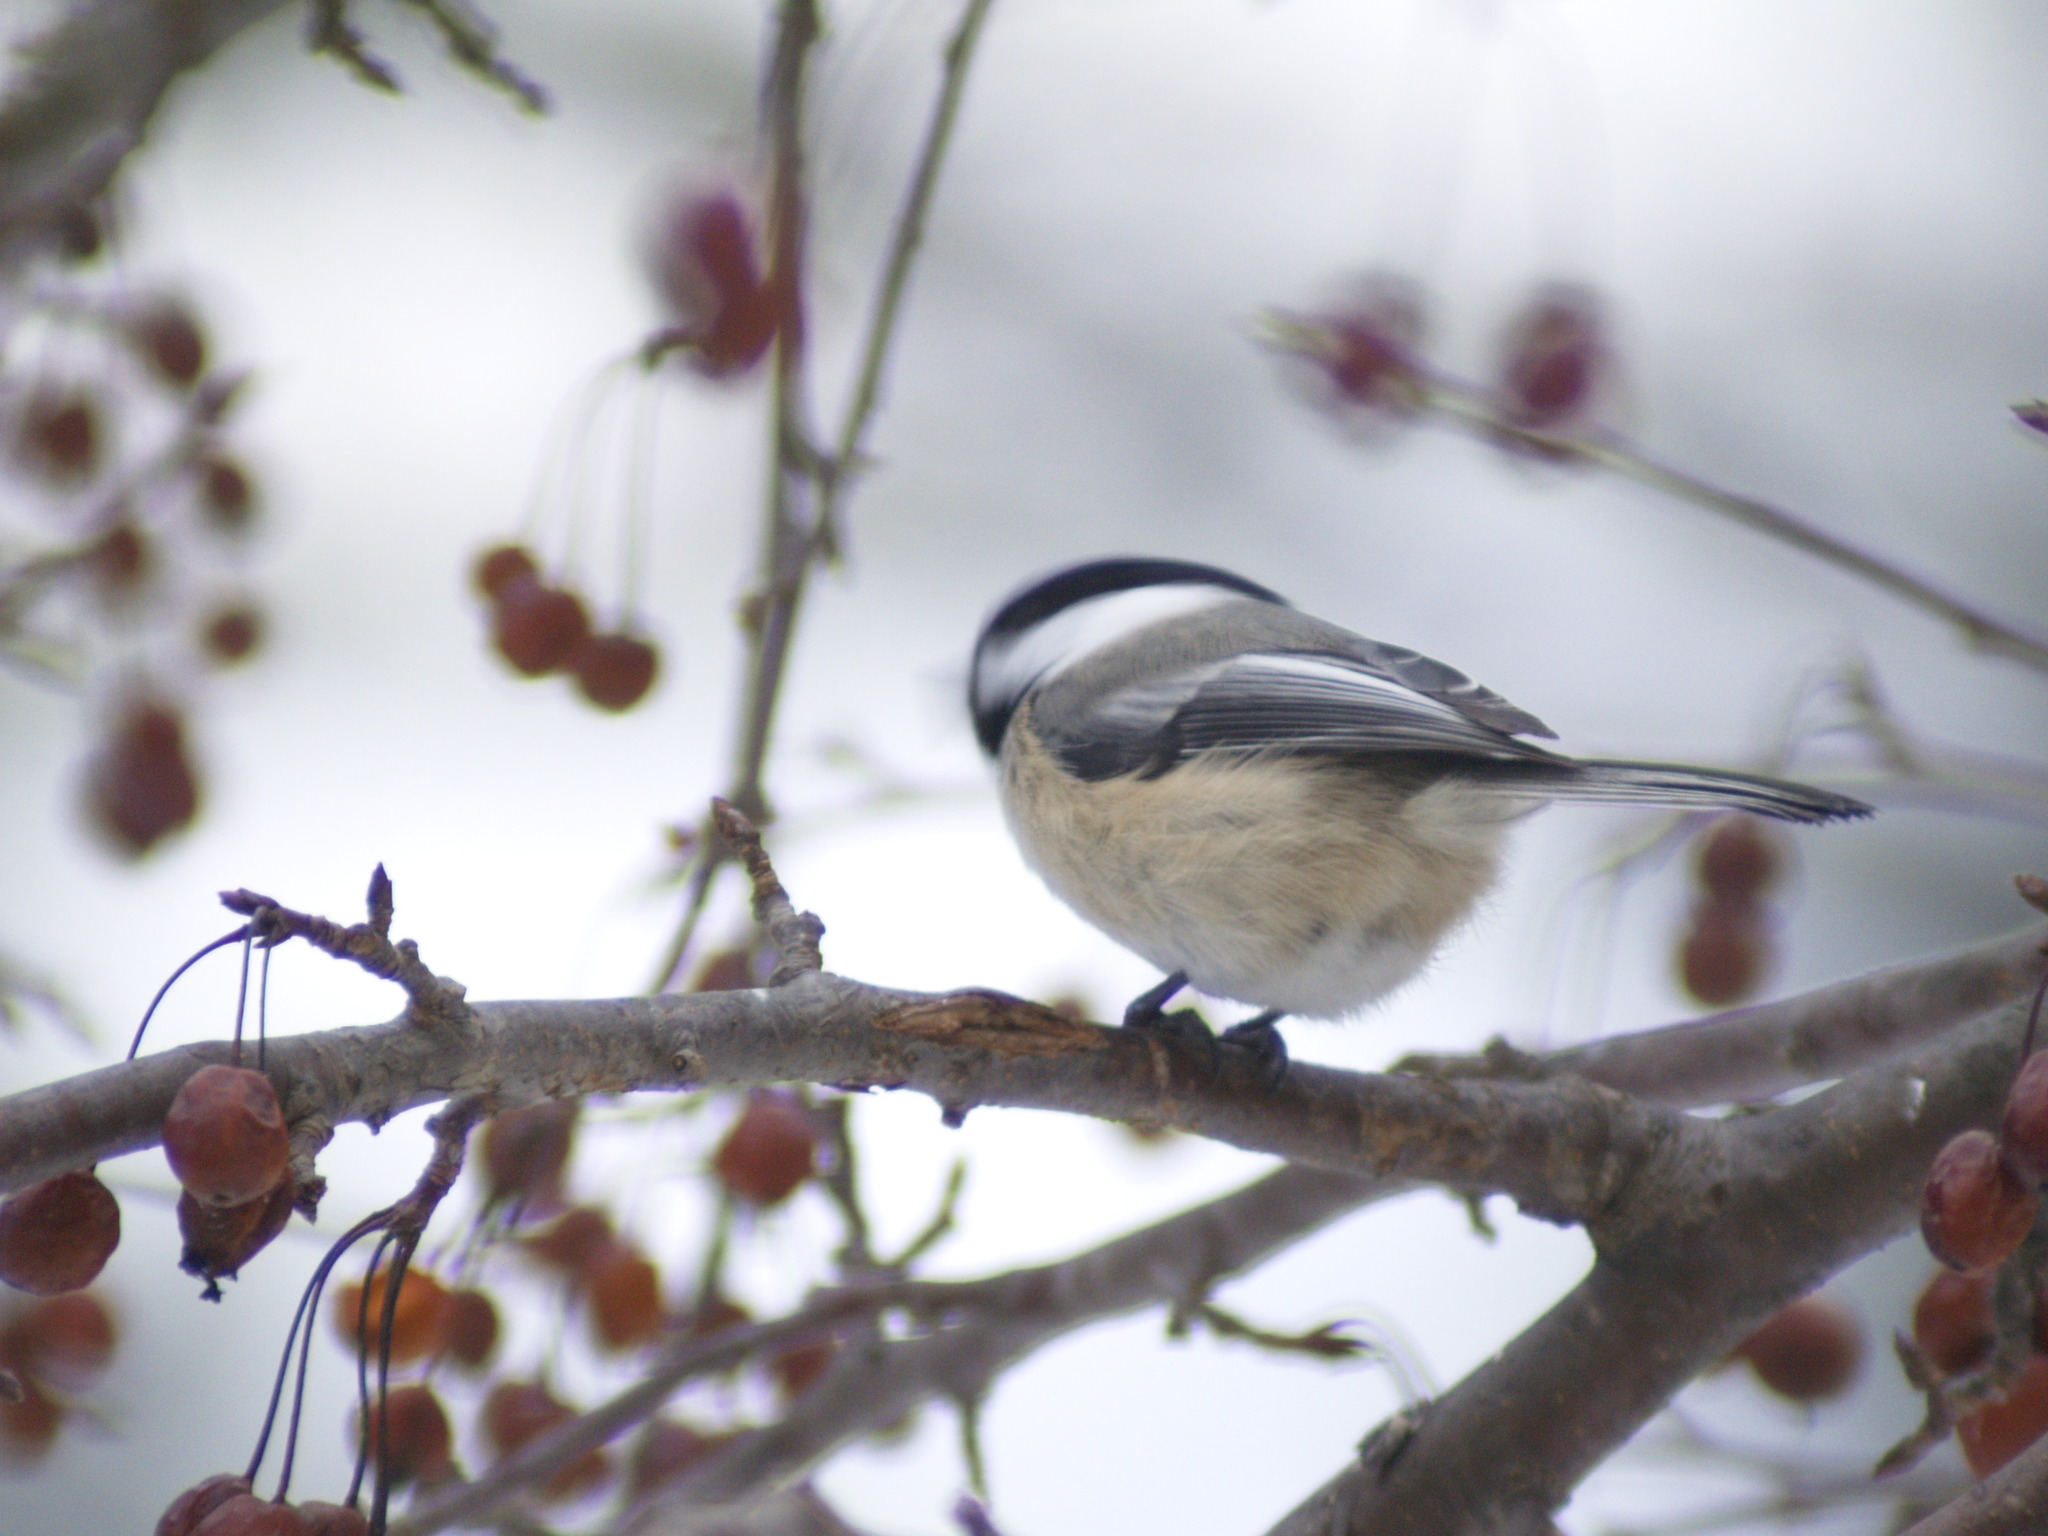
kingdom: Animalia
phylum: Chordata
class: Aves
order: Passeriformes
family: Paridae
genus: Poecile
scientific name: Poecile atricapillus
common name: Black-capped chickadee
